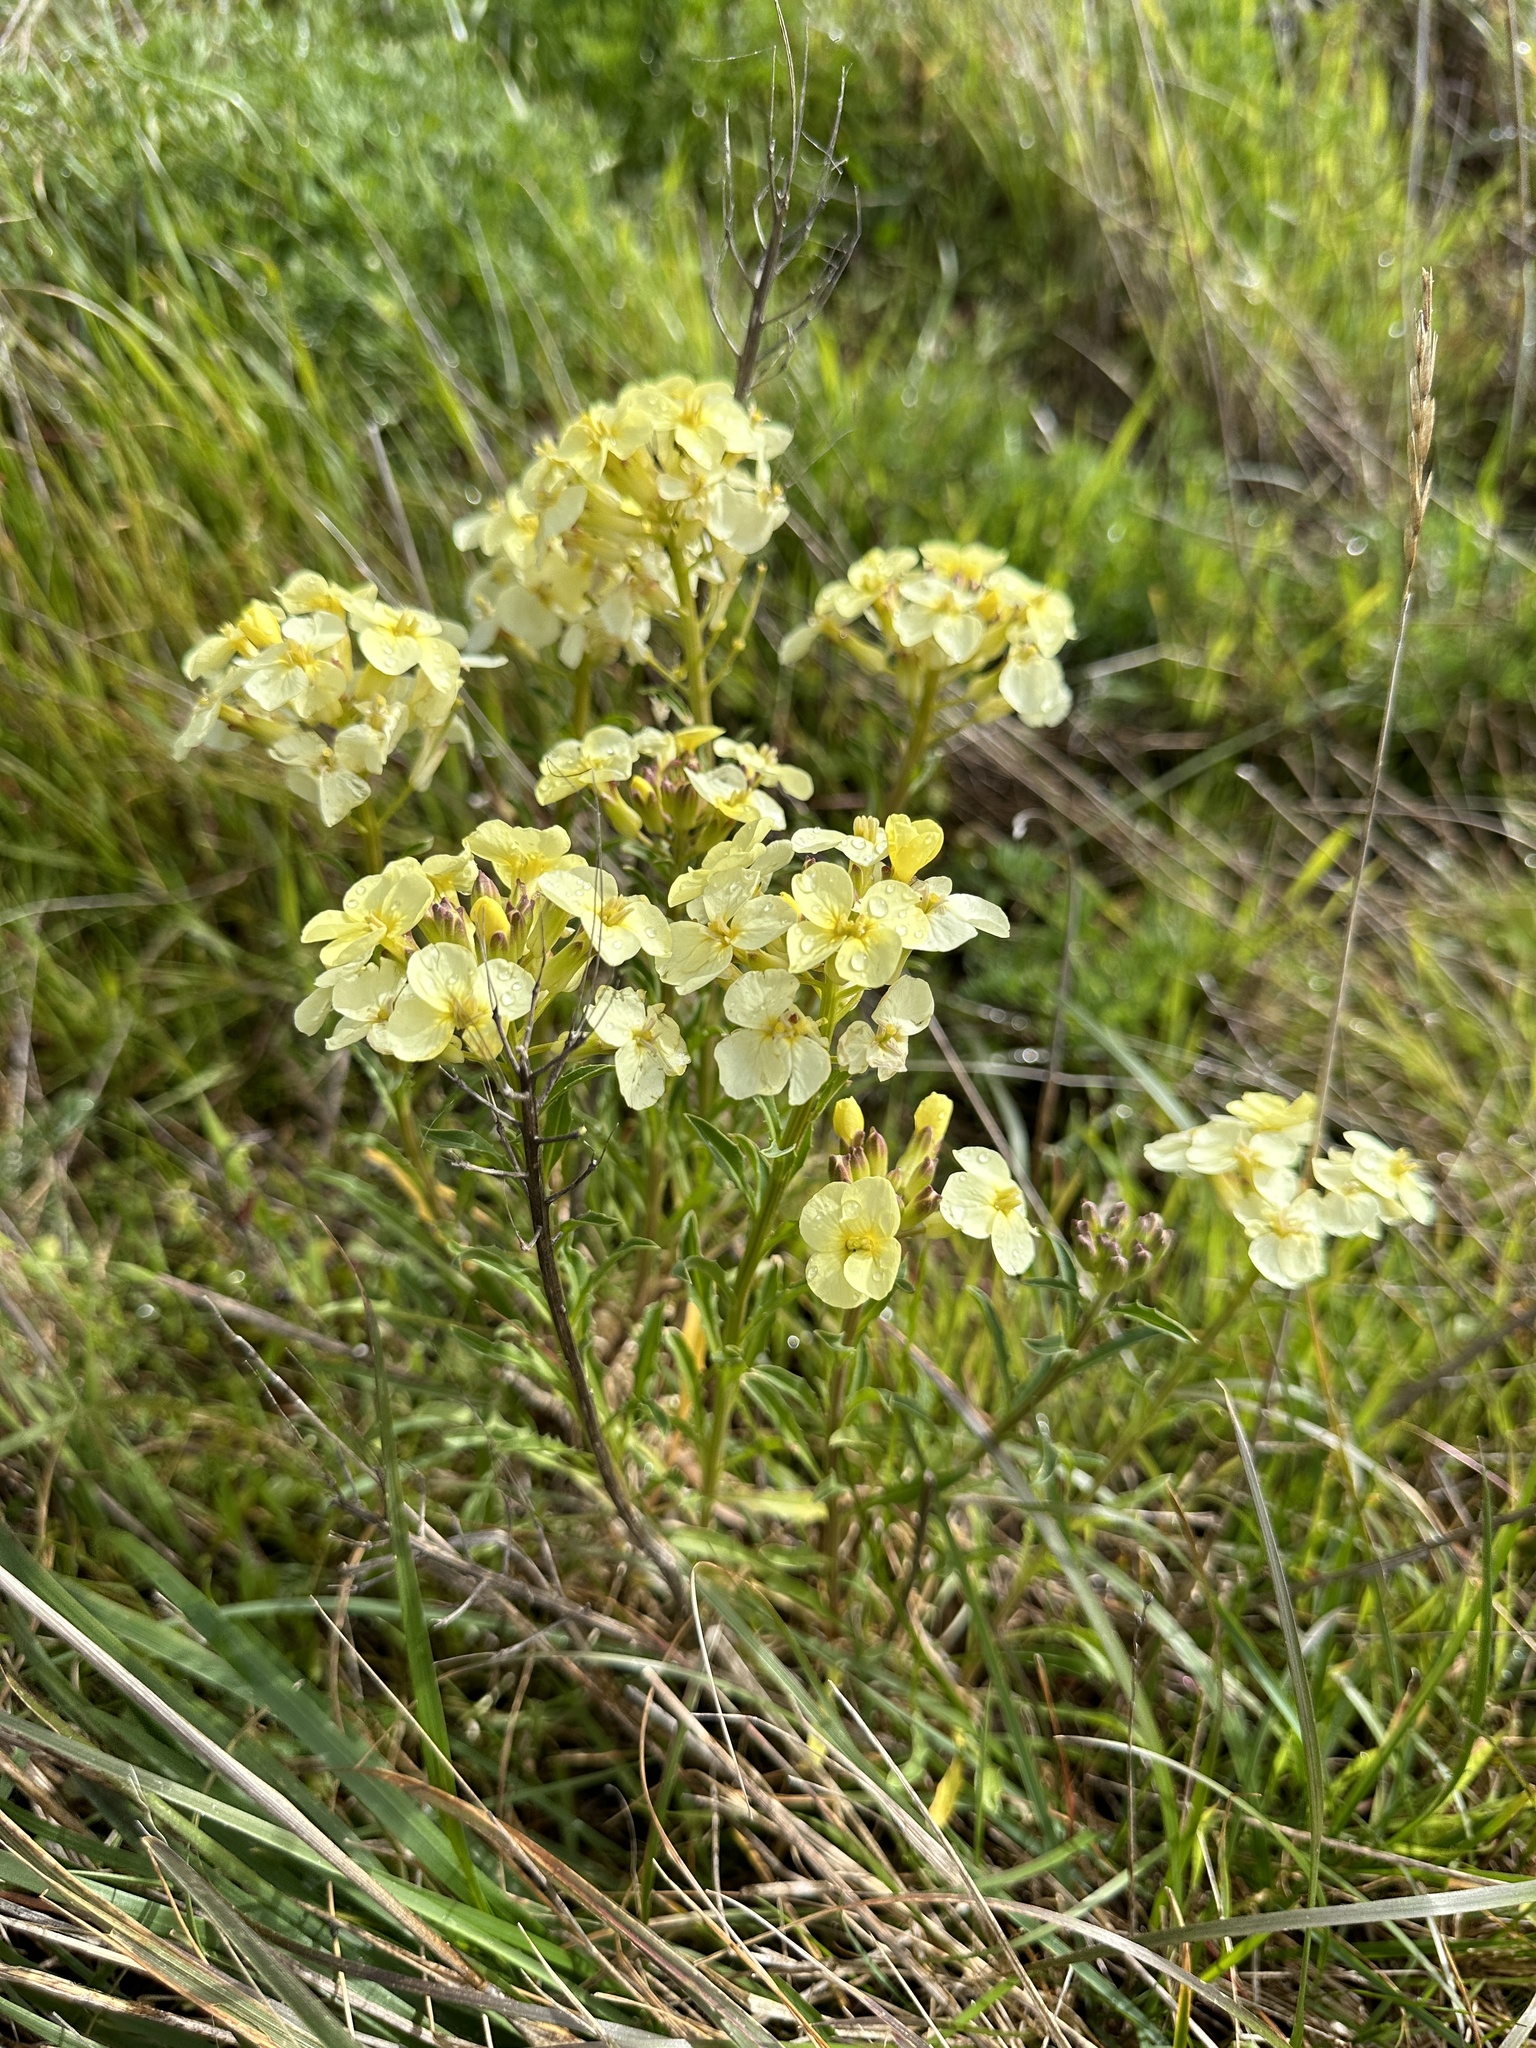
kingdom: Plantae
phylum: Tracheophyta
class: Magnoliopsida
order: Brassicales
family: Brassicaceae
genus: Erysimum
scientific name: Erysimum franciscanum
